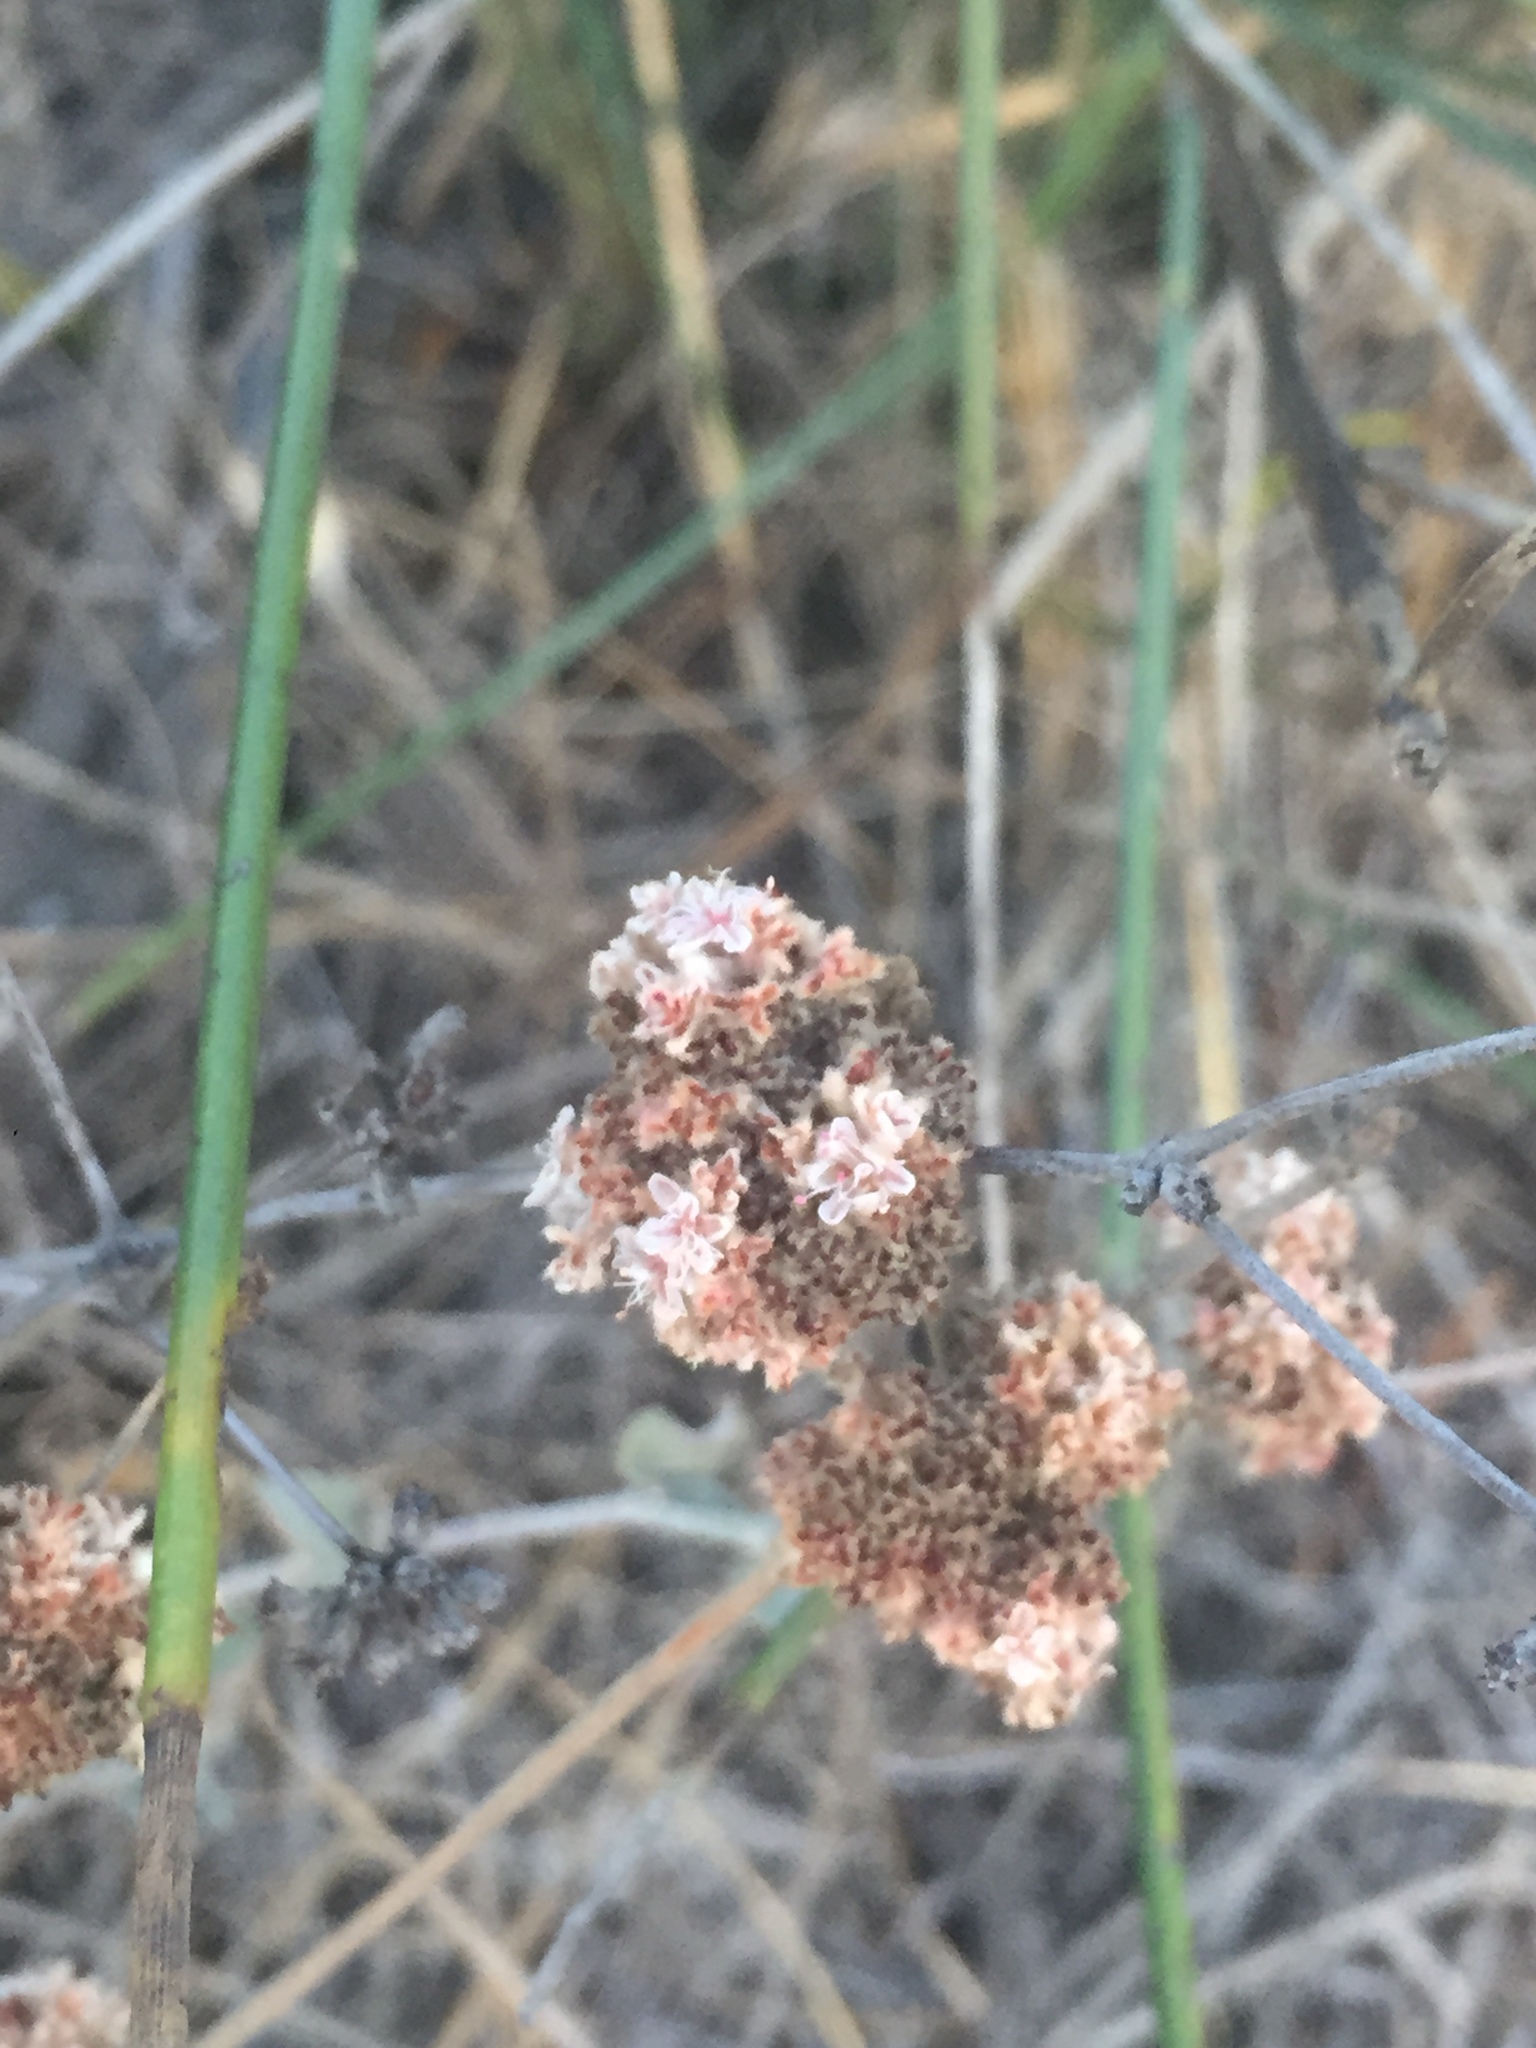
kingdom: Plantae
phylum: Tracheophyta
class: Magnoliopsida
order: Caryophyllales
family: Polygonaceae
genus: Eriogonum
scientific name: Eriogonum cinereum
